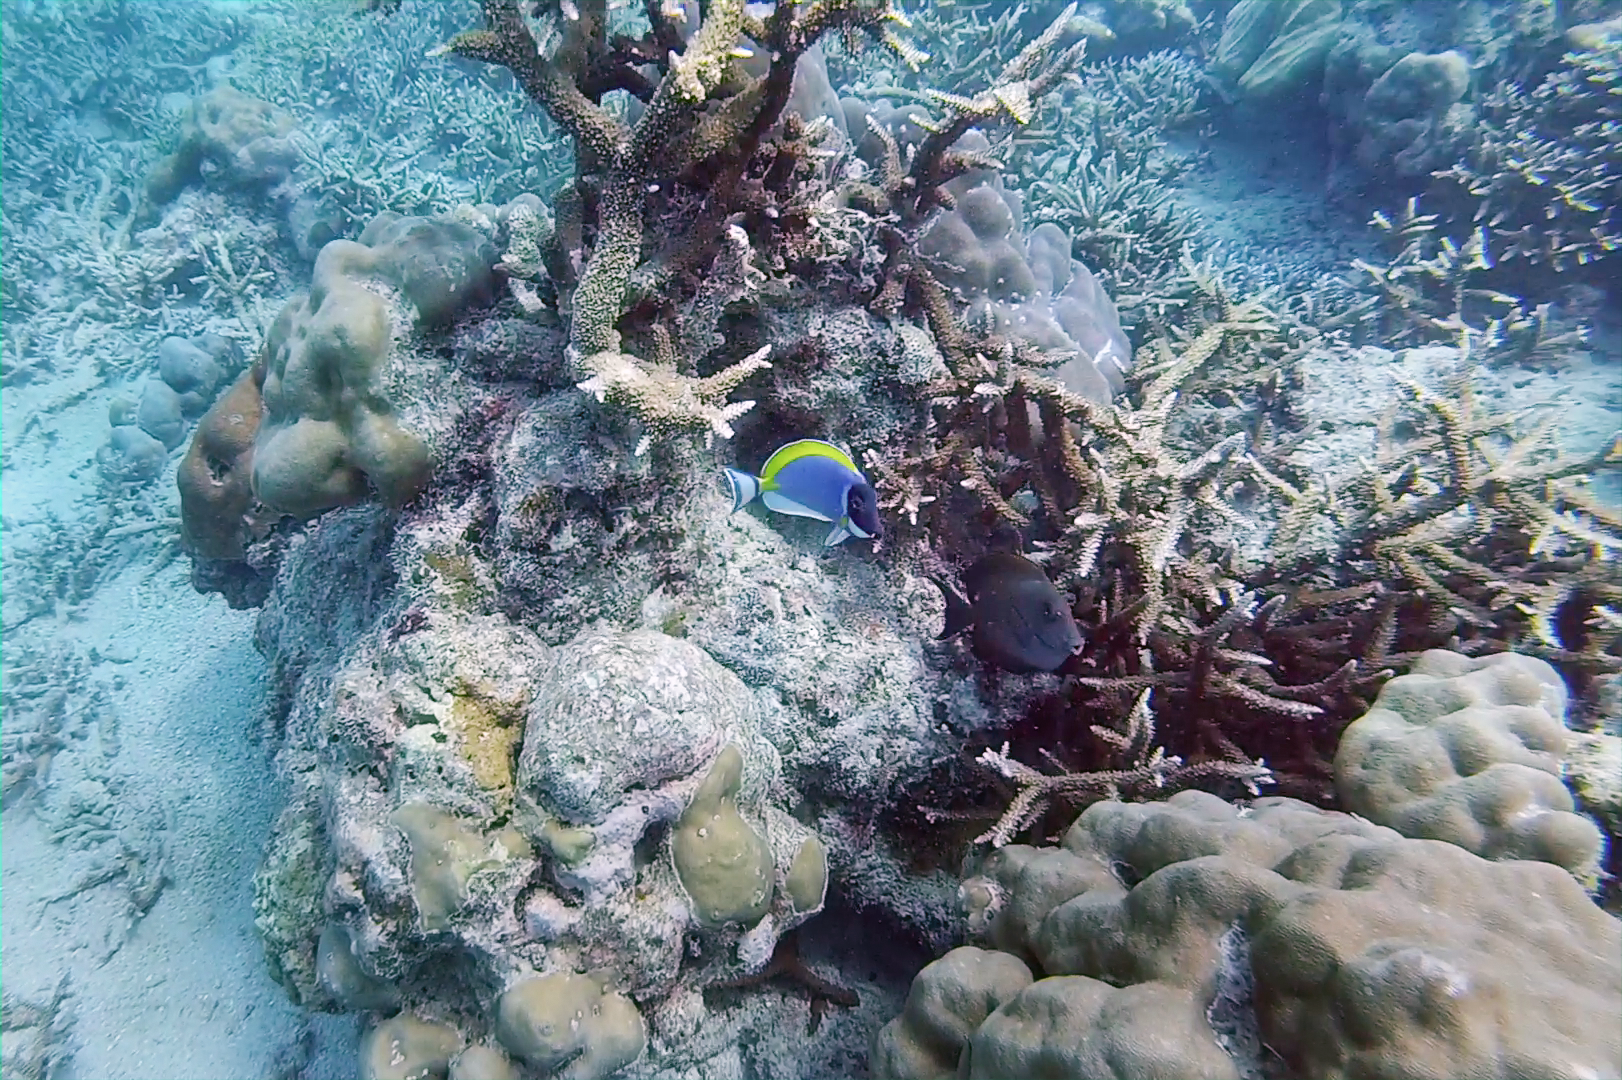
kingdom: Animalia
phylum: Chordata
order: Perciformes
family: Acanthuridae
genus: Acanthurus
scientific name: Acanthurus leucosternon
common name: Blue surgeonfish
